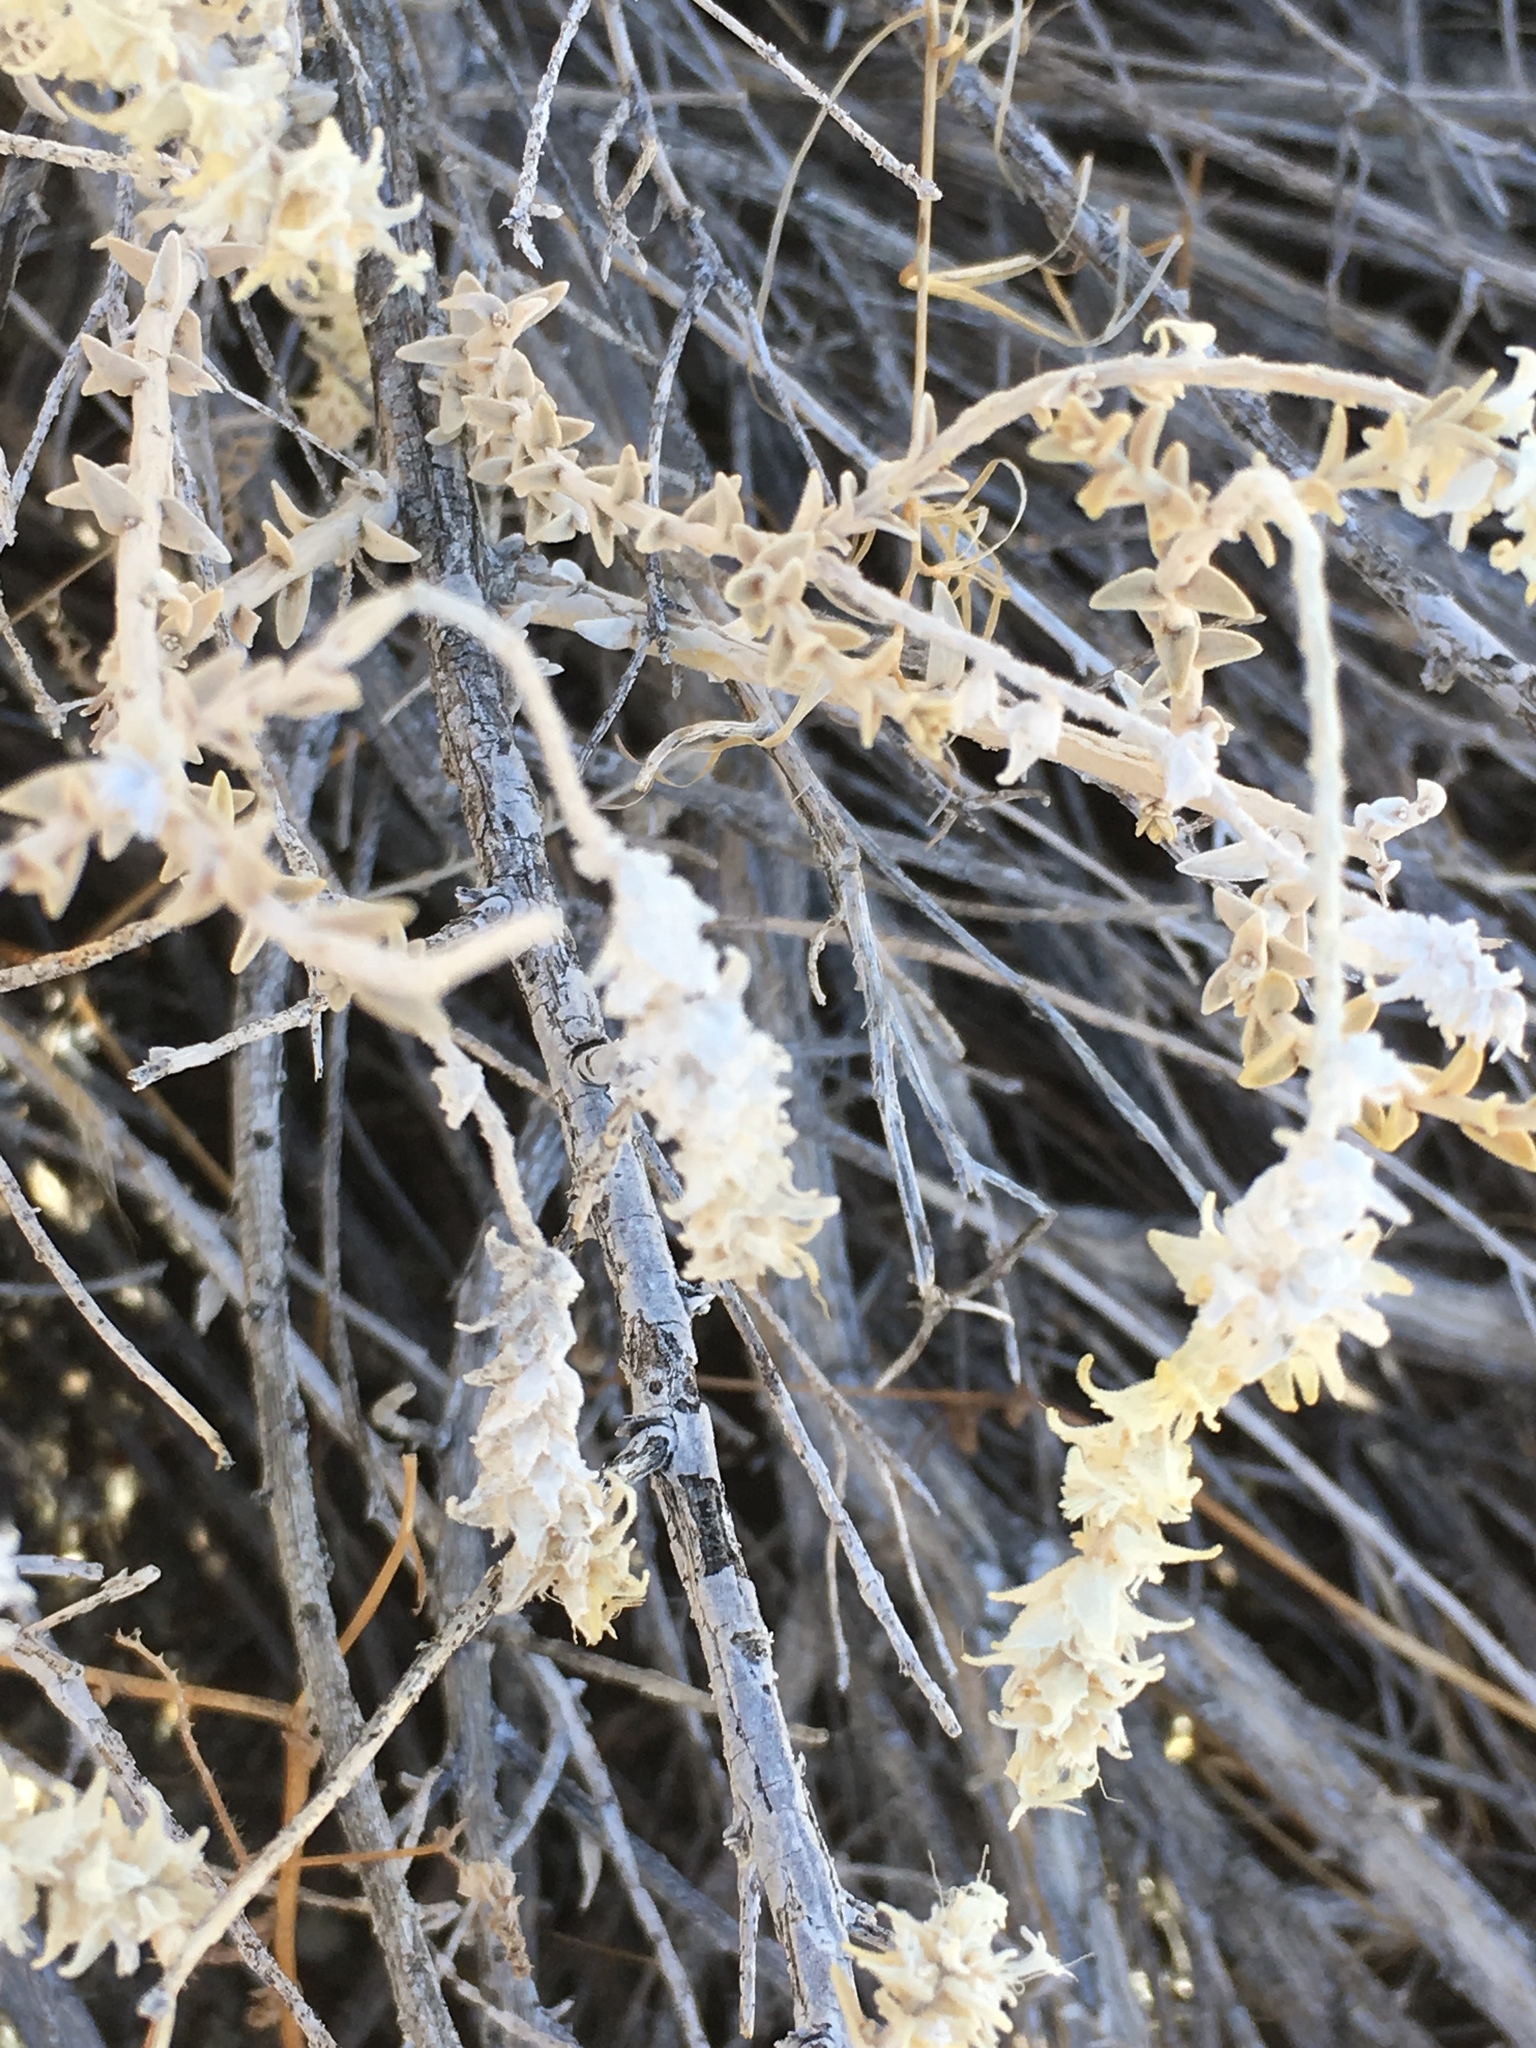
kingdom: Plantae
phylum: Tracheophyta
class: Magnoliopsida
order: Cornales
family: Loasaceae
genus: Petalonyx
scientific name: Petalonyx thurberi
